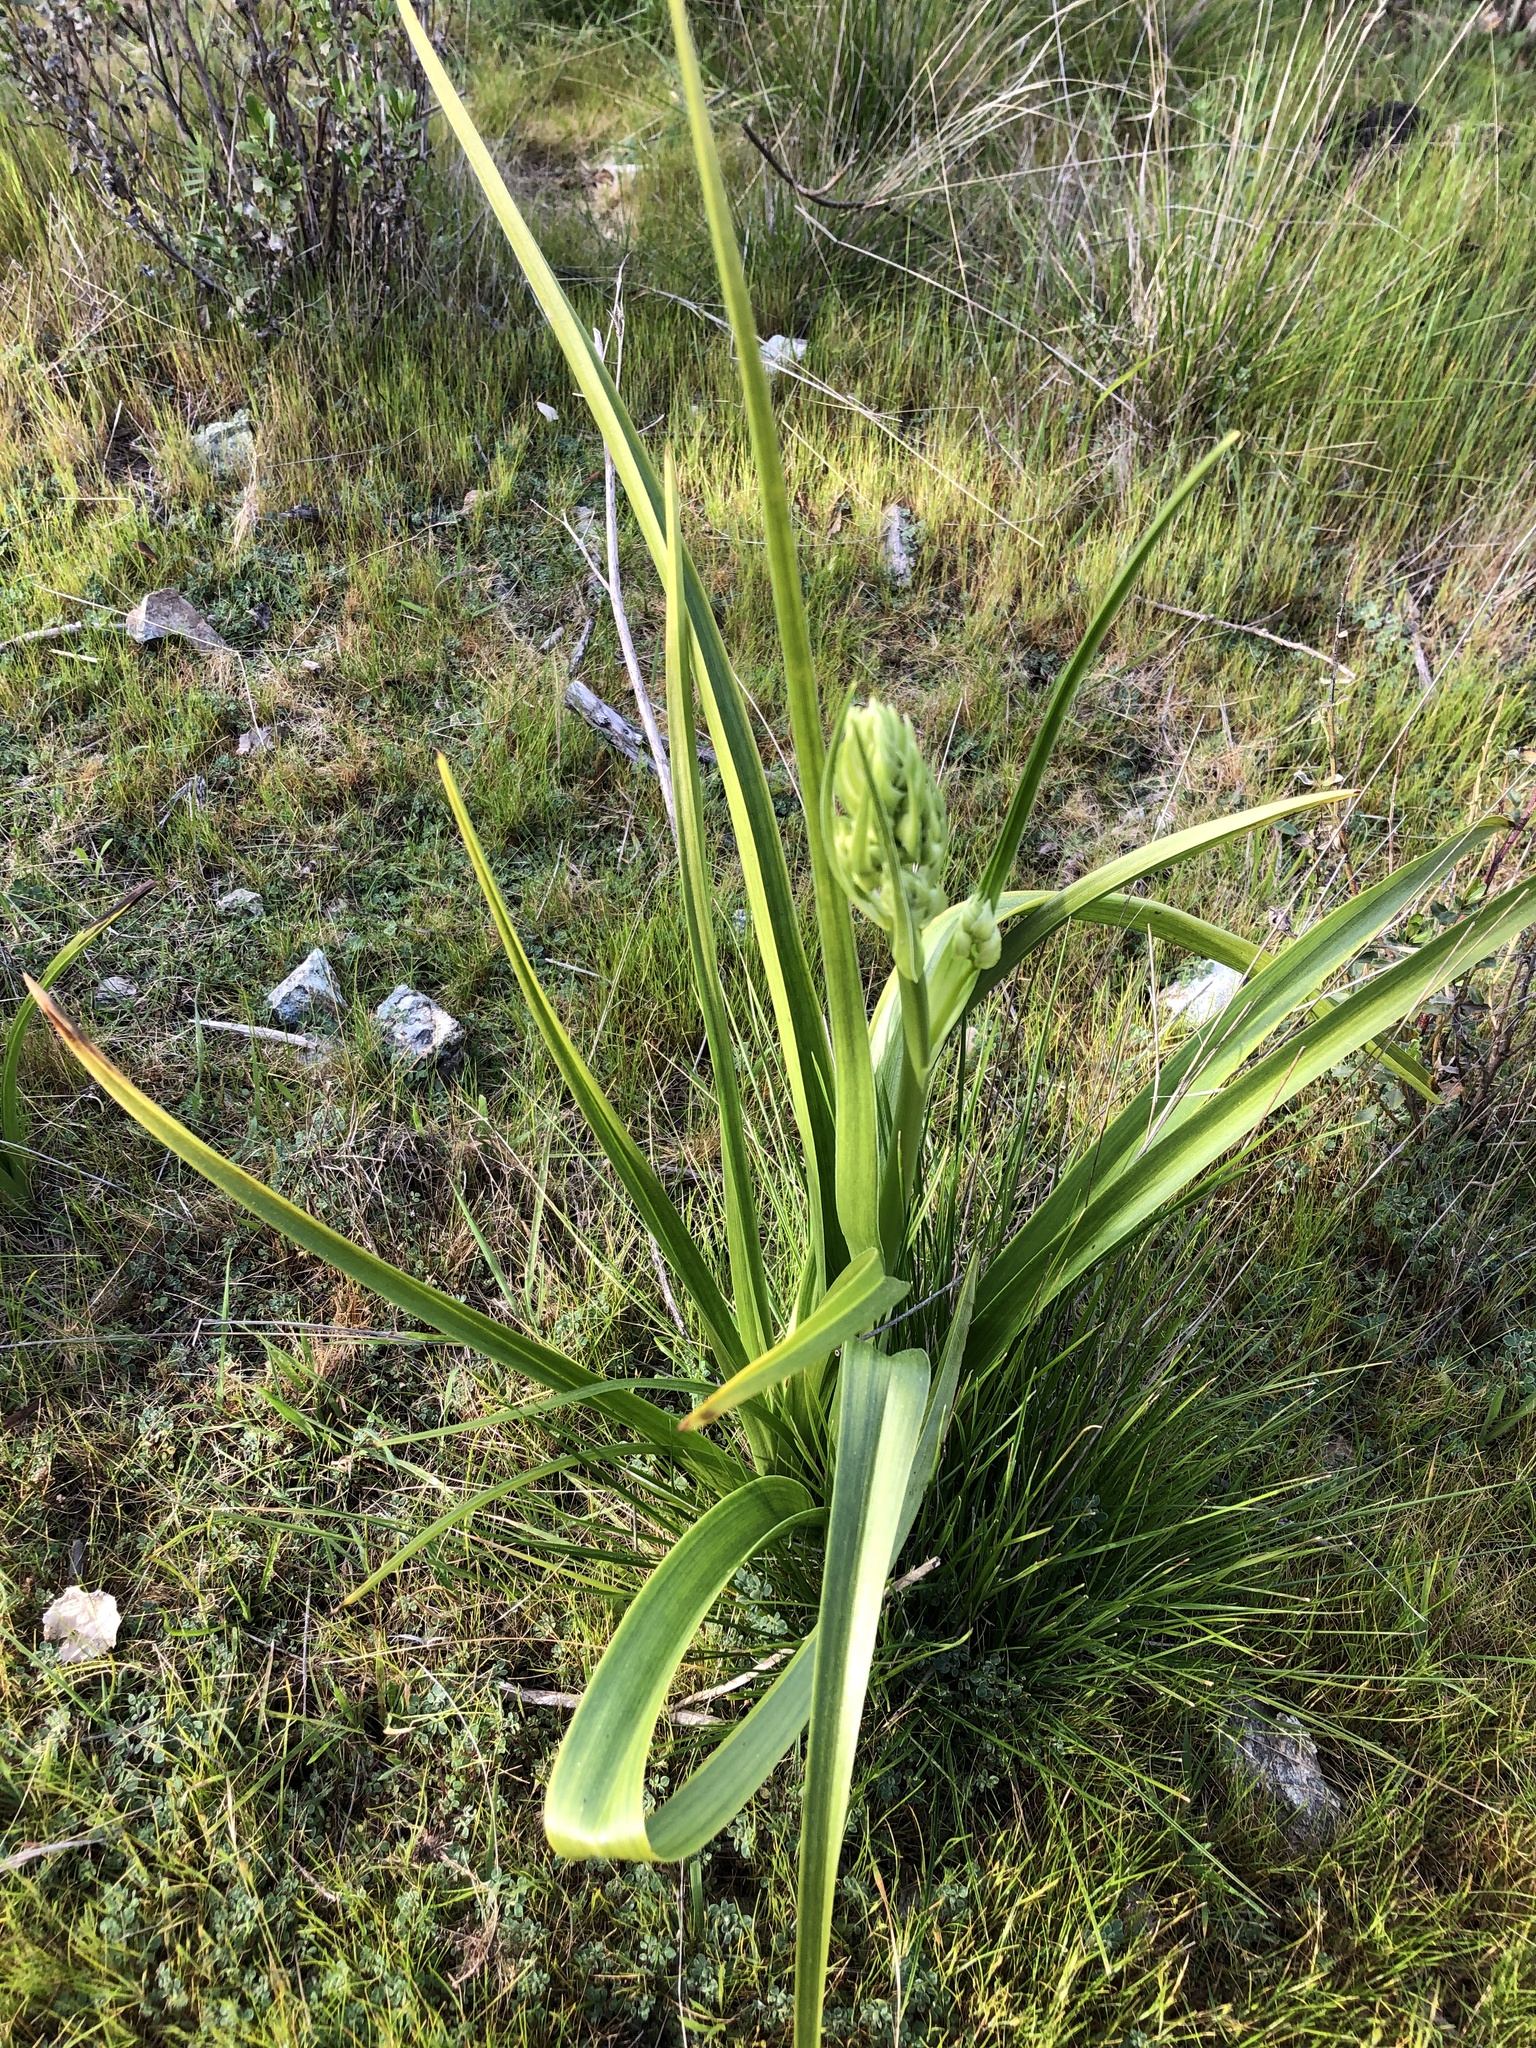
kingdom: Plantae
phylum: Tracheophyta
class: Liliopsida
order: Liliales
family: Melanthiaceae
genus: Toxicoscordion
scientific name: Toxicoscordion fremontii
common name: Fremont's death camas
